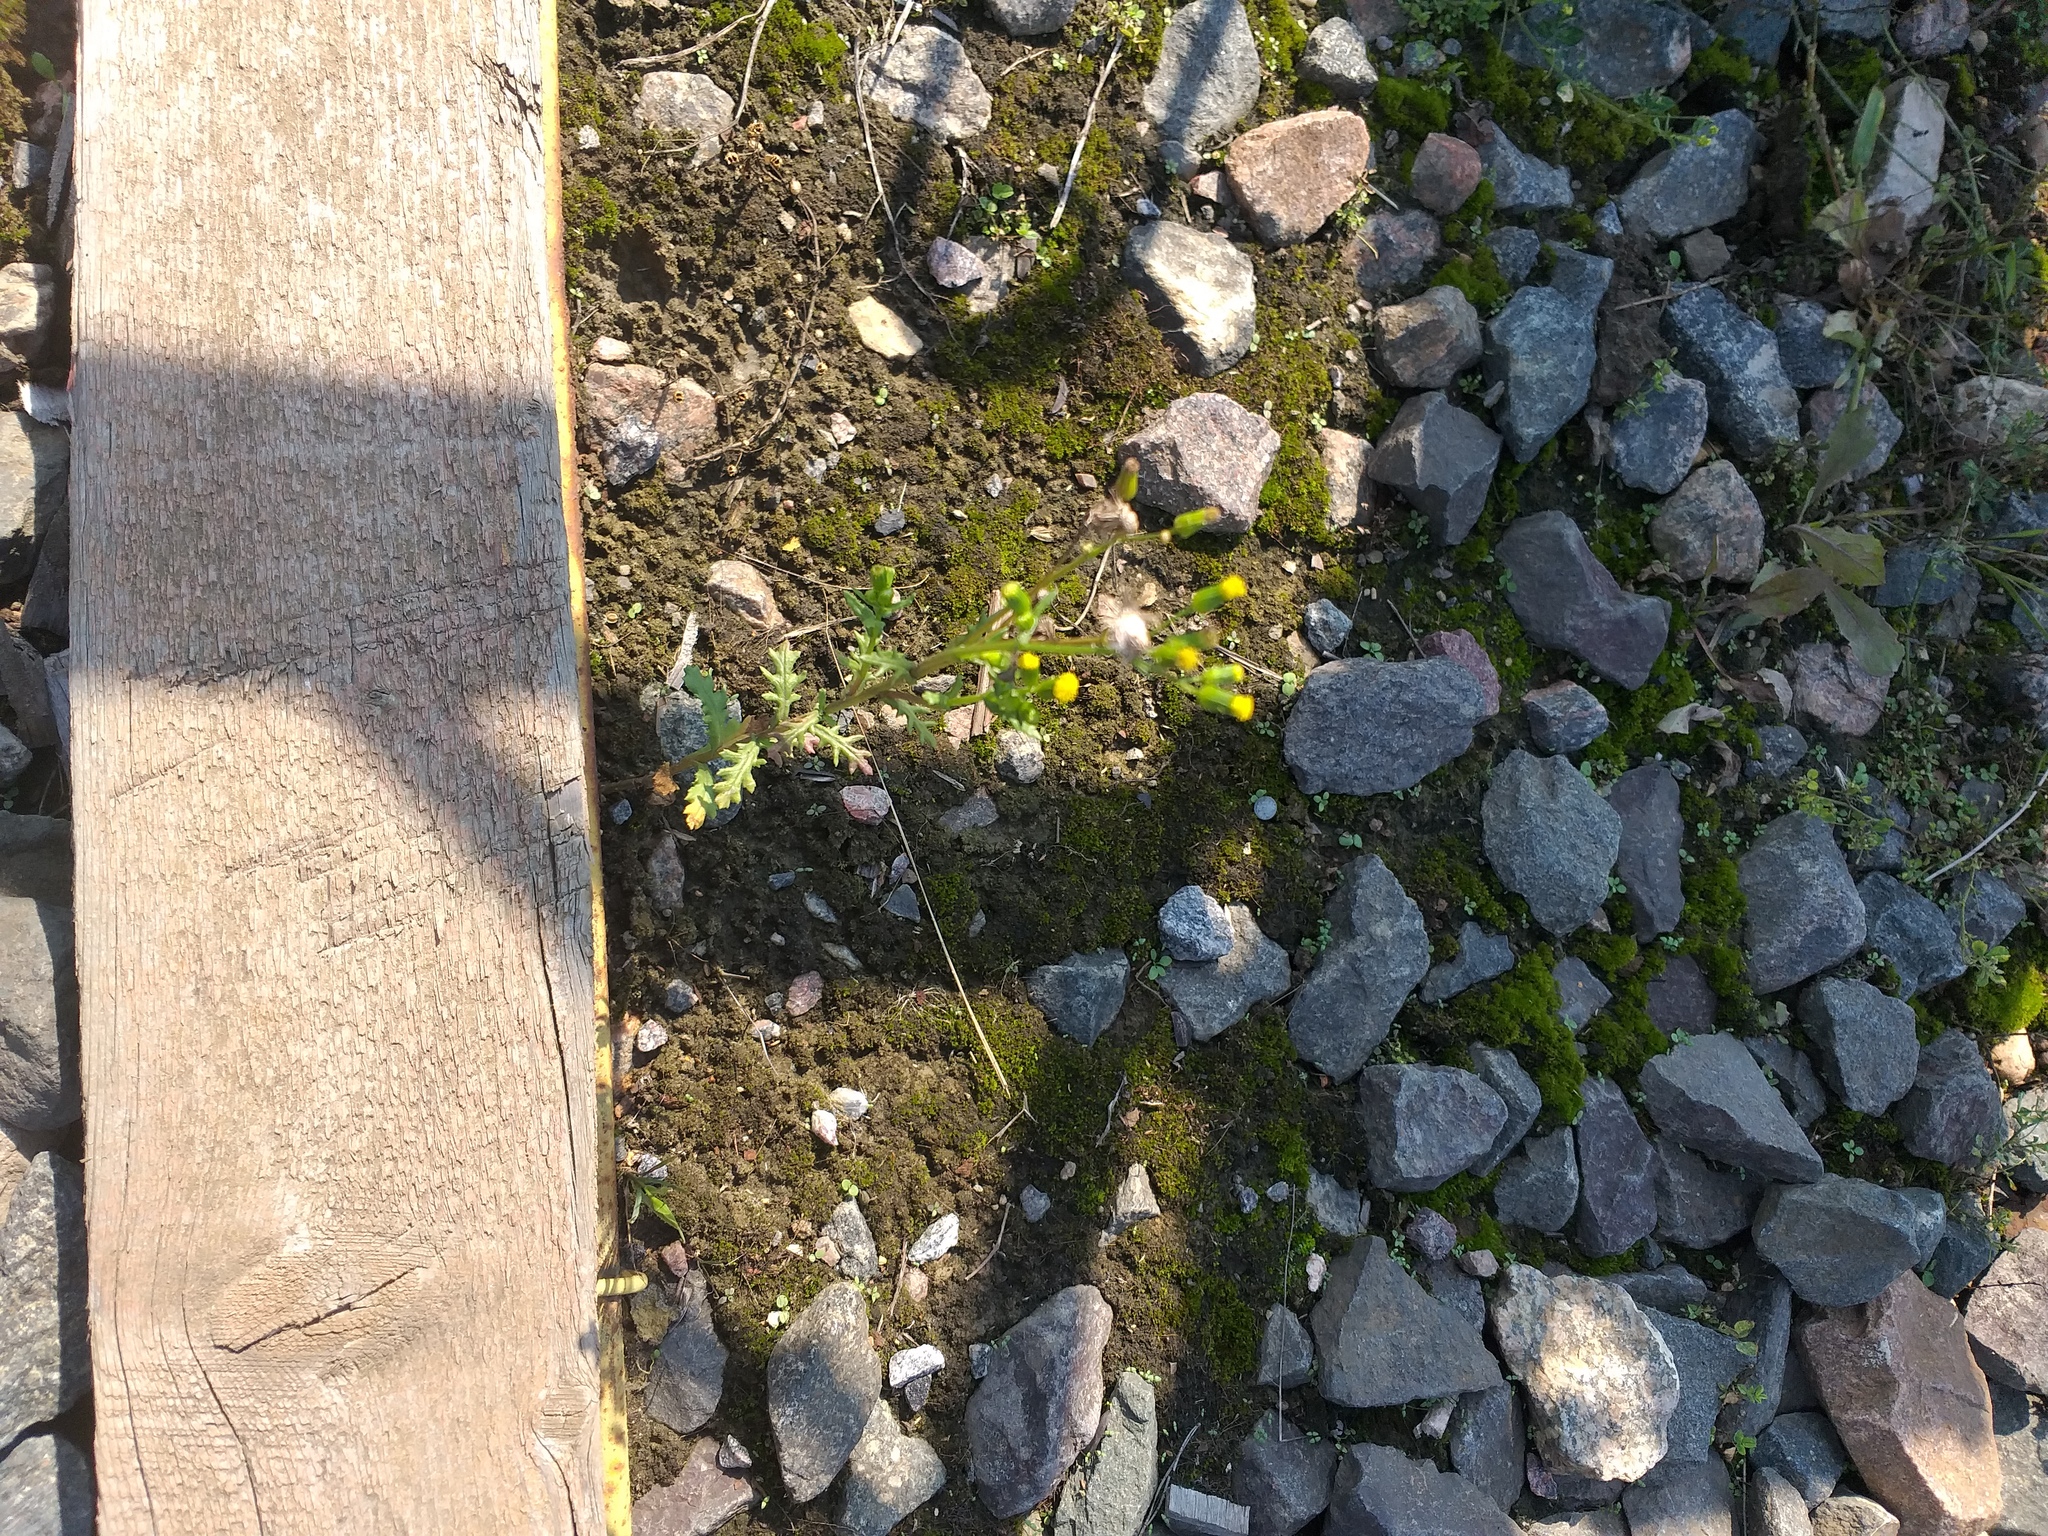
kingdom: Plantae
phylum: Tracheophyta
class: Magnoliopsida
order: Asterales
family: Asteraceae
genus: Senecio
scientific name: Senecio vulgaris
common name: Old-man-in-the-spring
